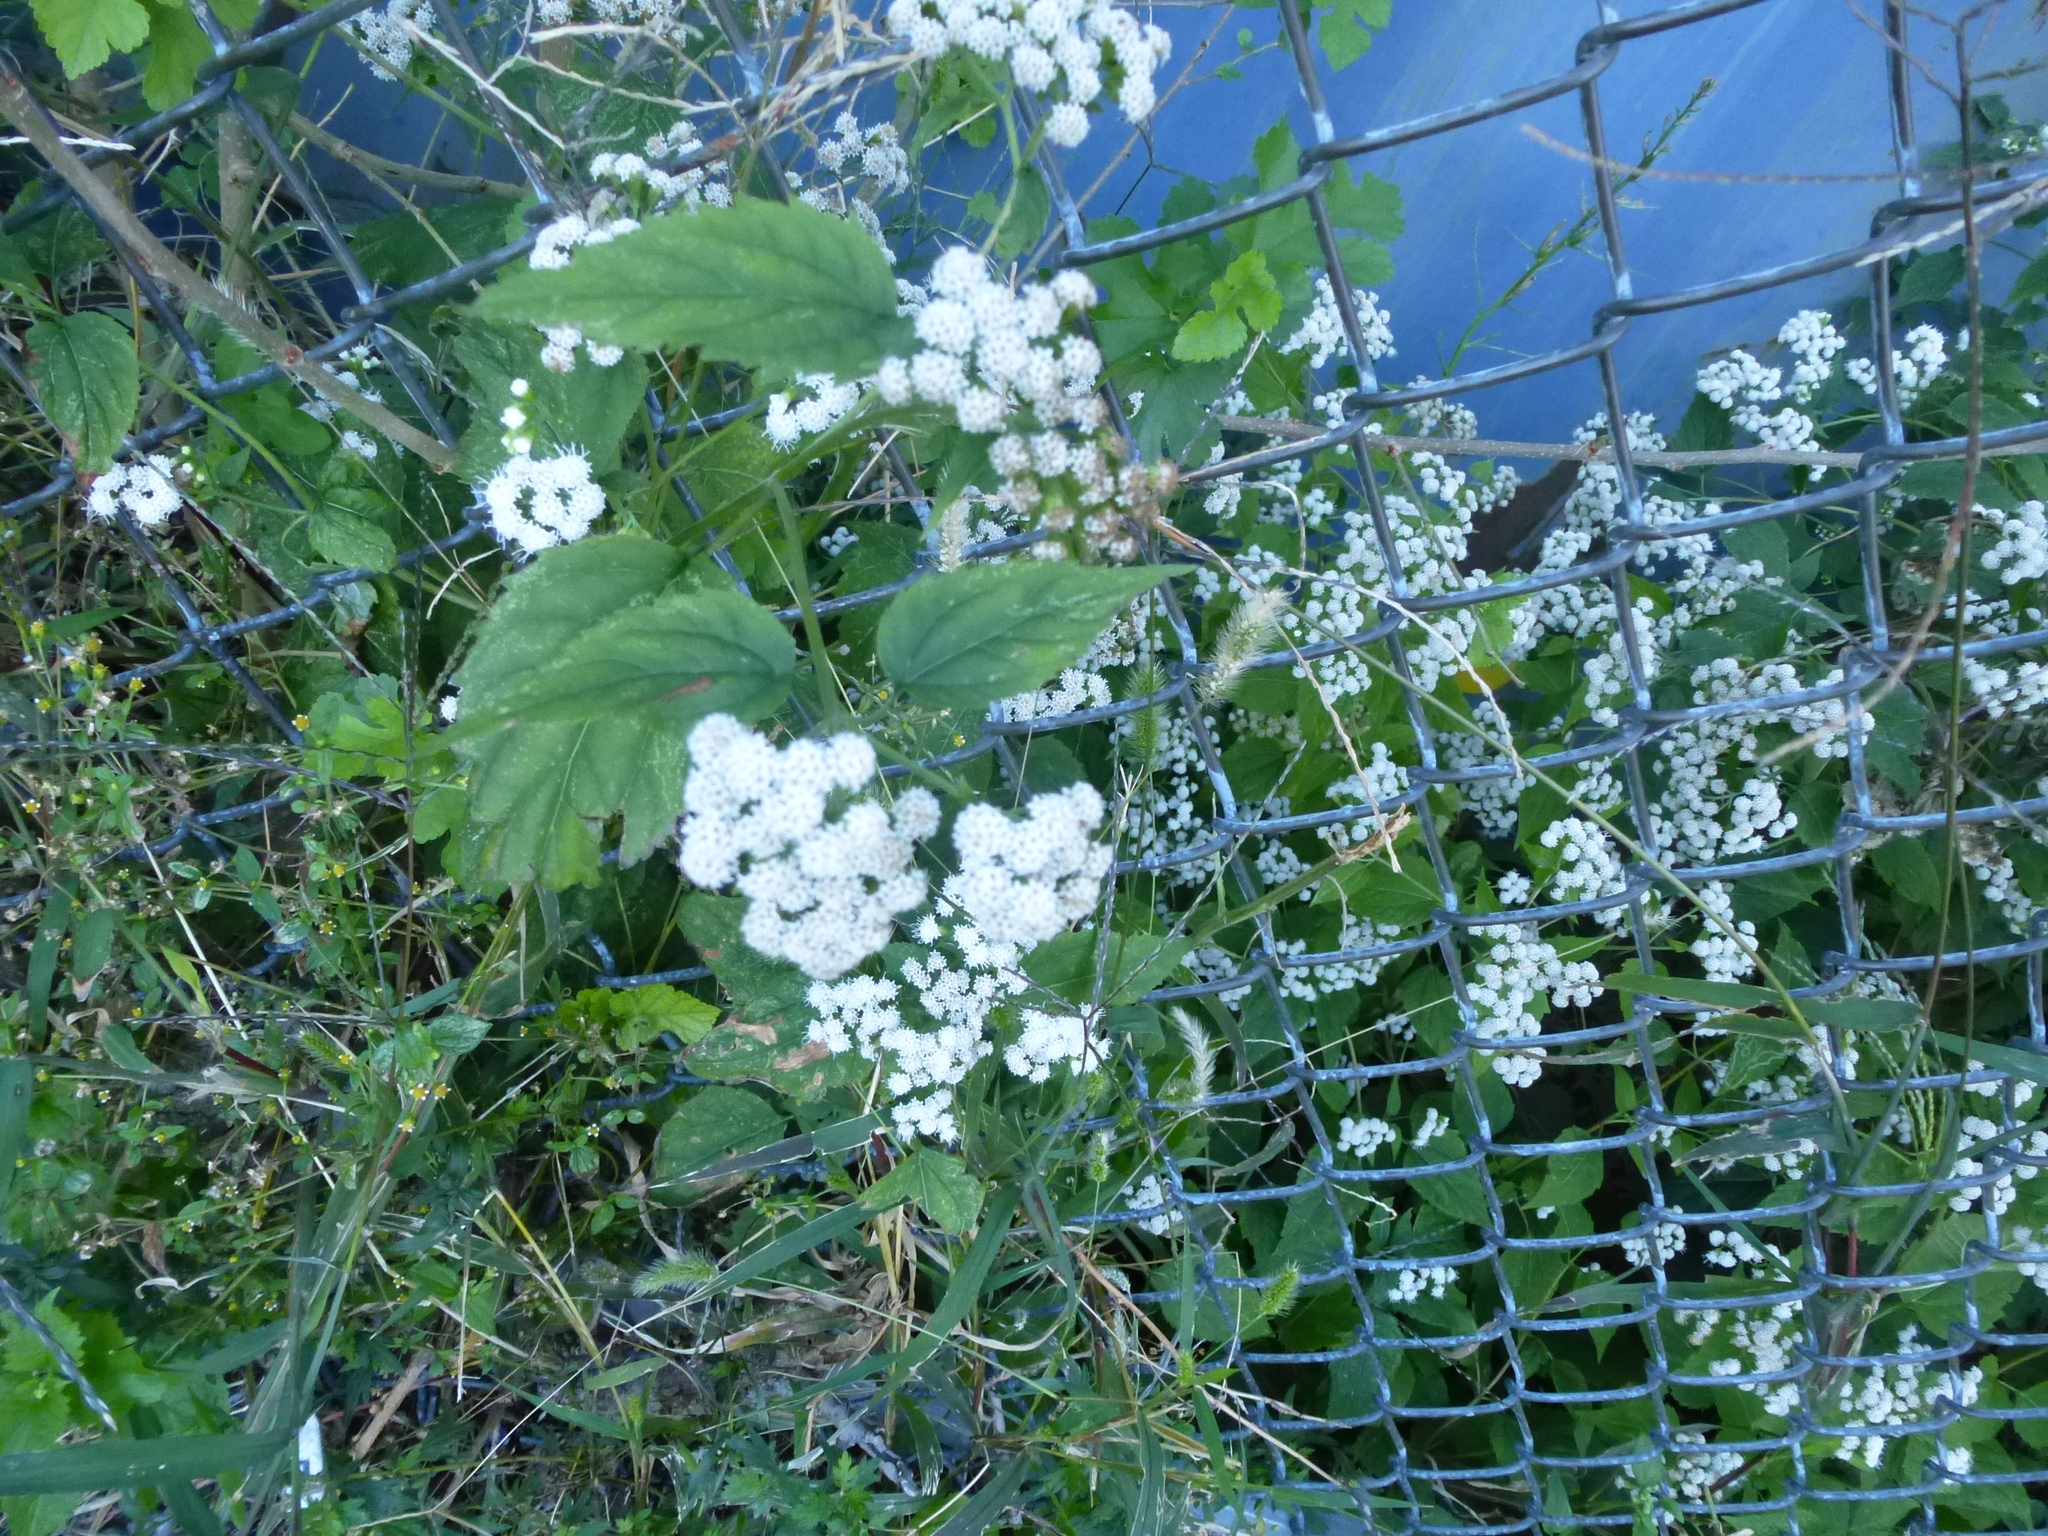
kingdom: Plantae
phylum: Tracheophyta
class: Magnoliopsida
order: Asterales
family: Asteraceae
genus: Ageratina
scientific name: Ageratina altissima
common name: White snakeroot
